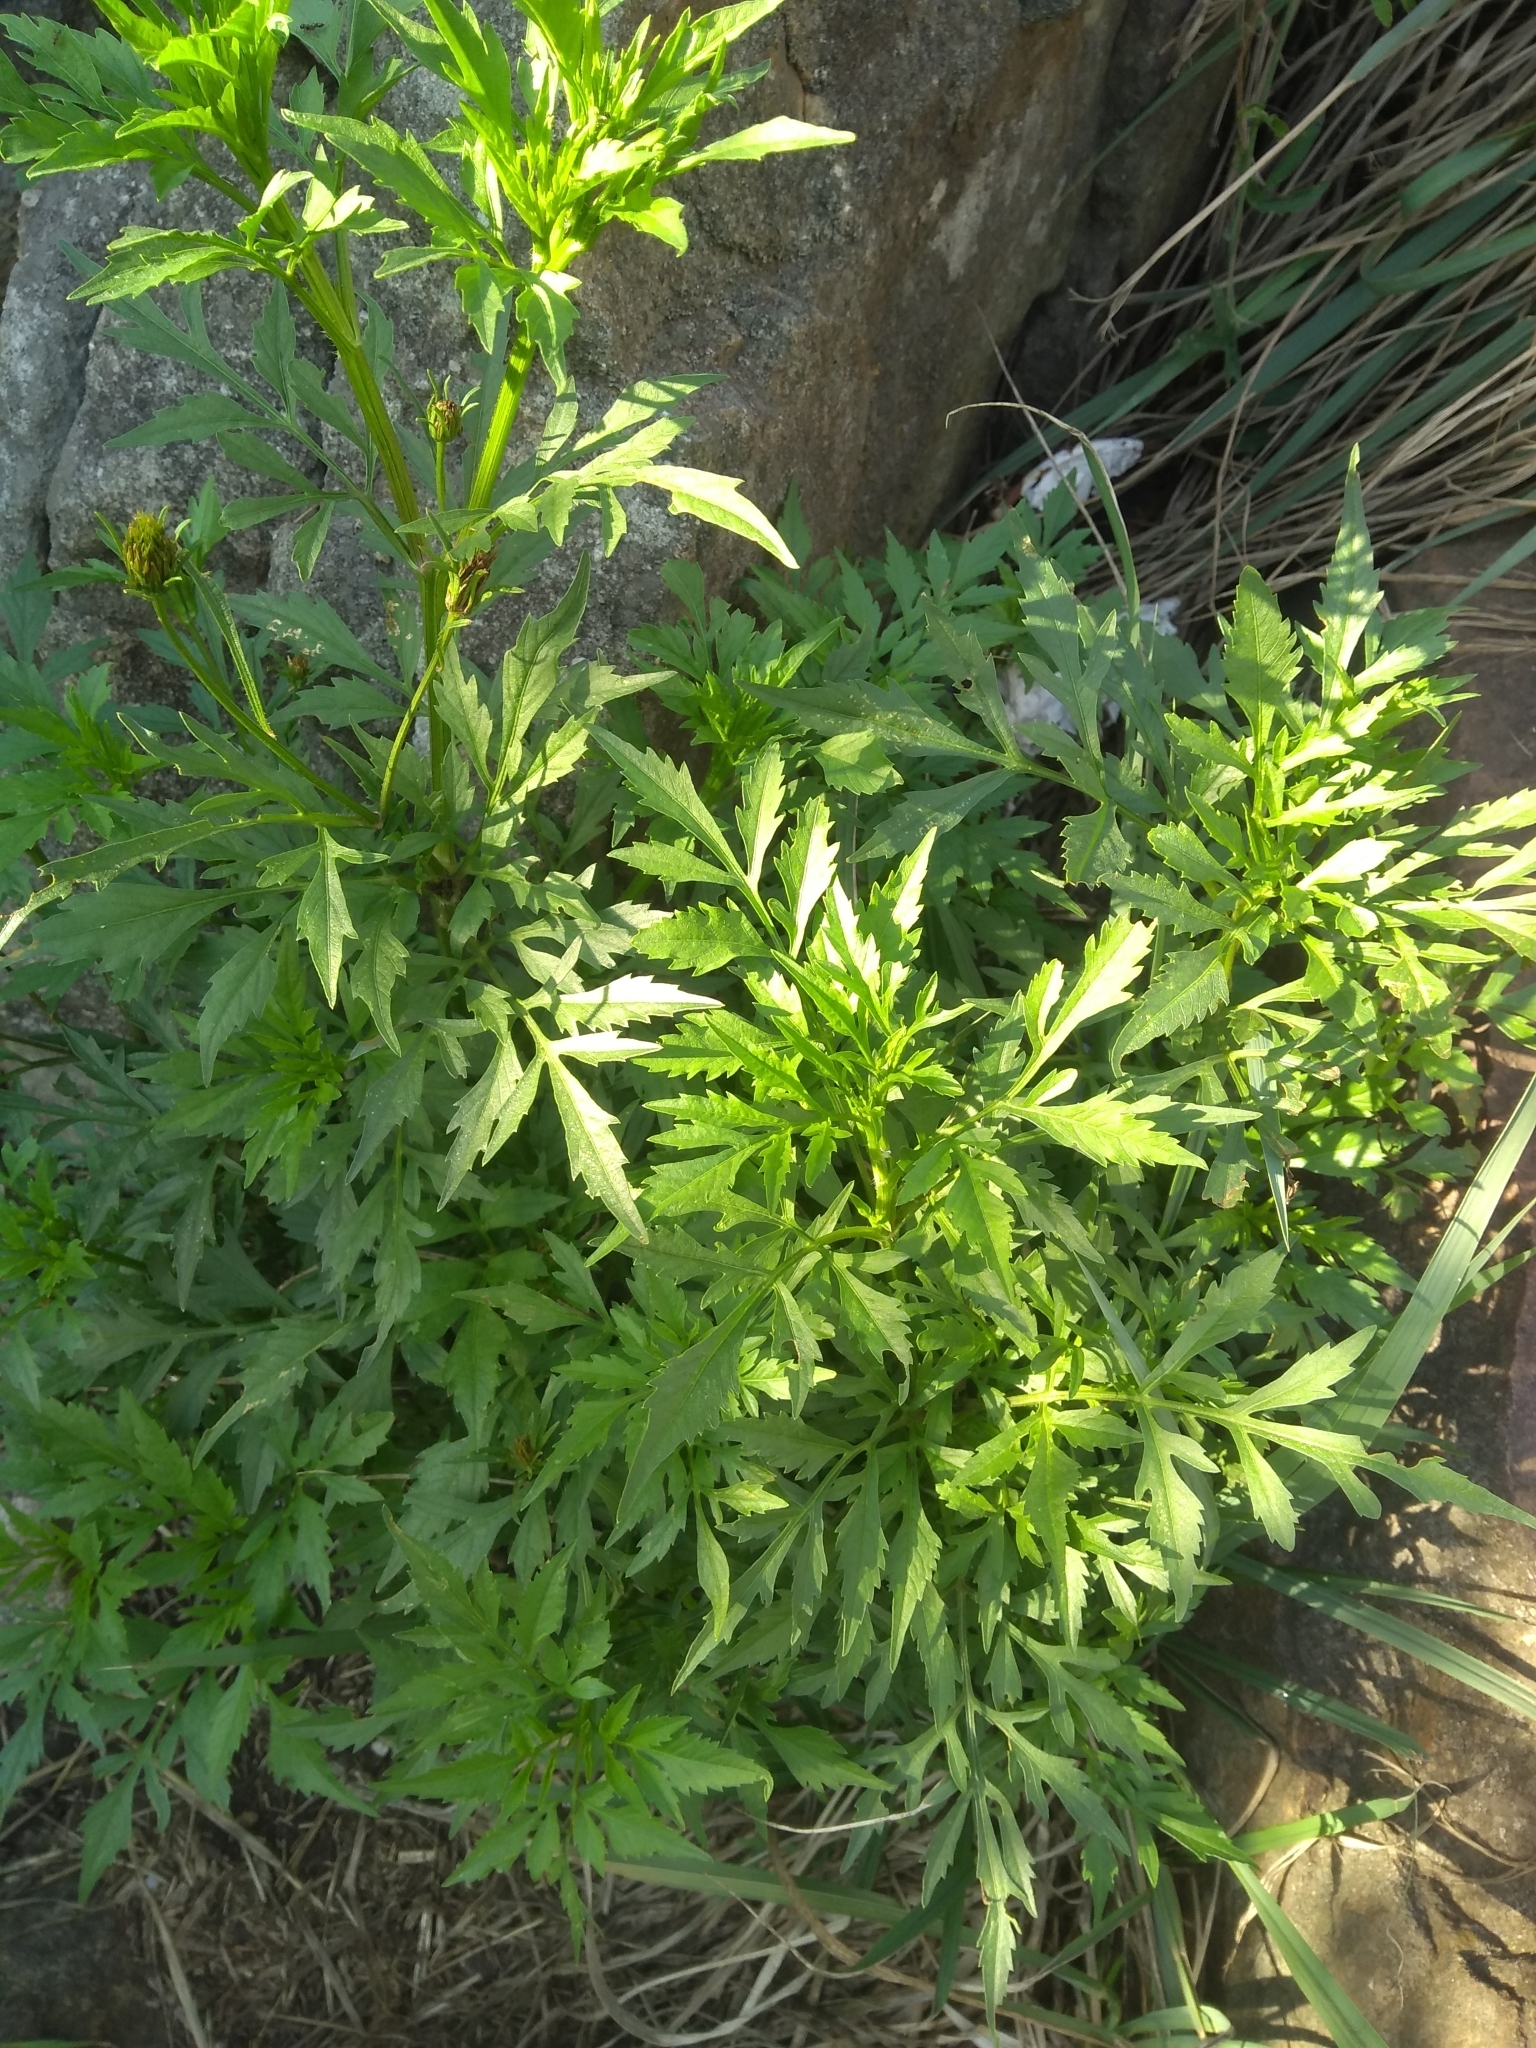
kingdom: Plantae
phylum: Tracheophyta
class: Magnoliopsida
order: Asterales
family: Asteraceae
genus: Bidens
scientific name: Bidens subalternans
